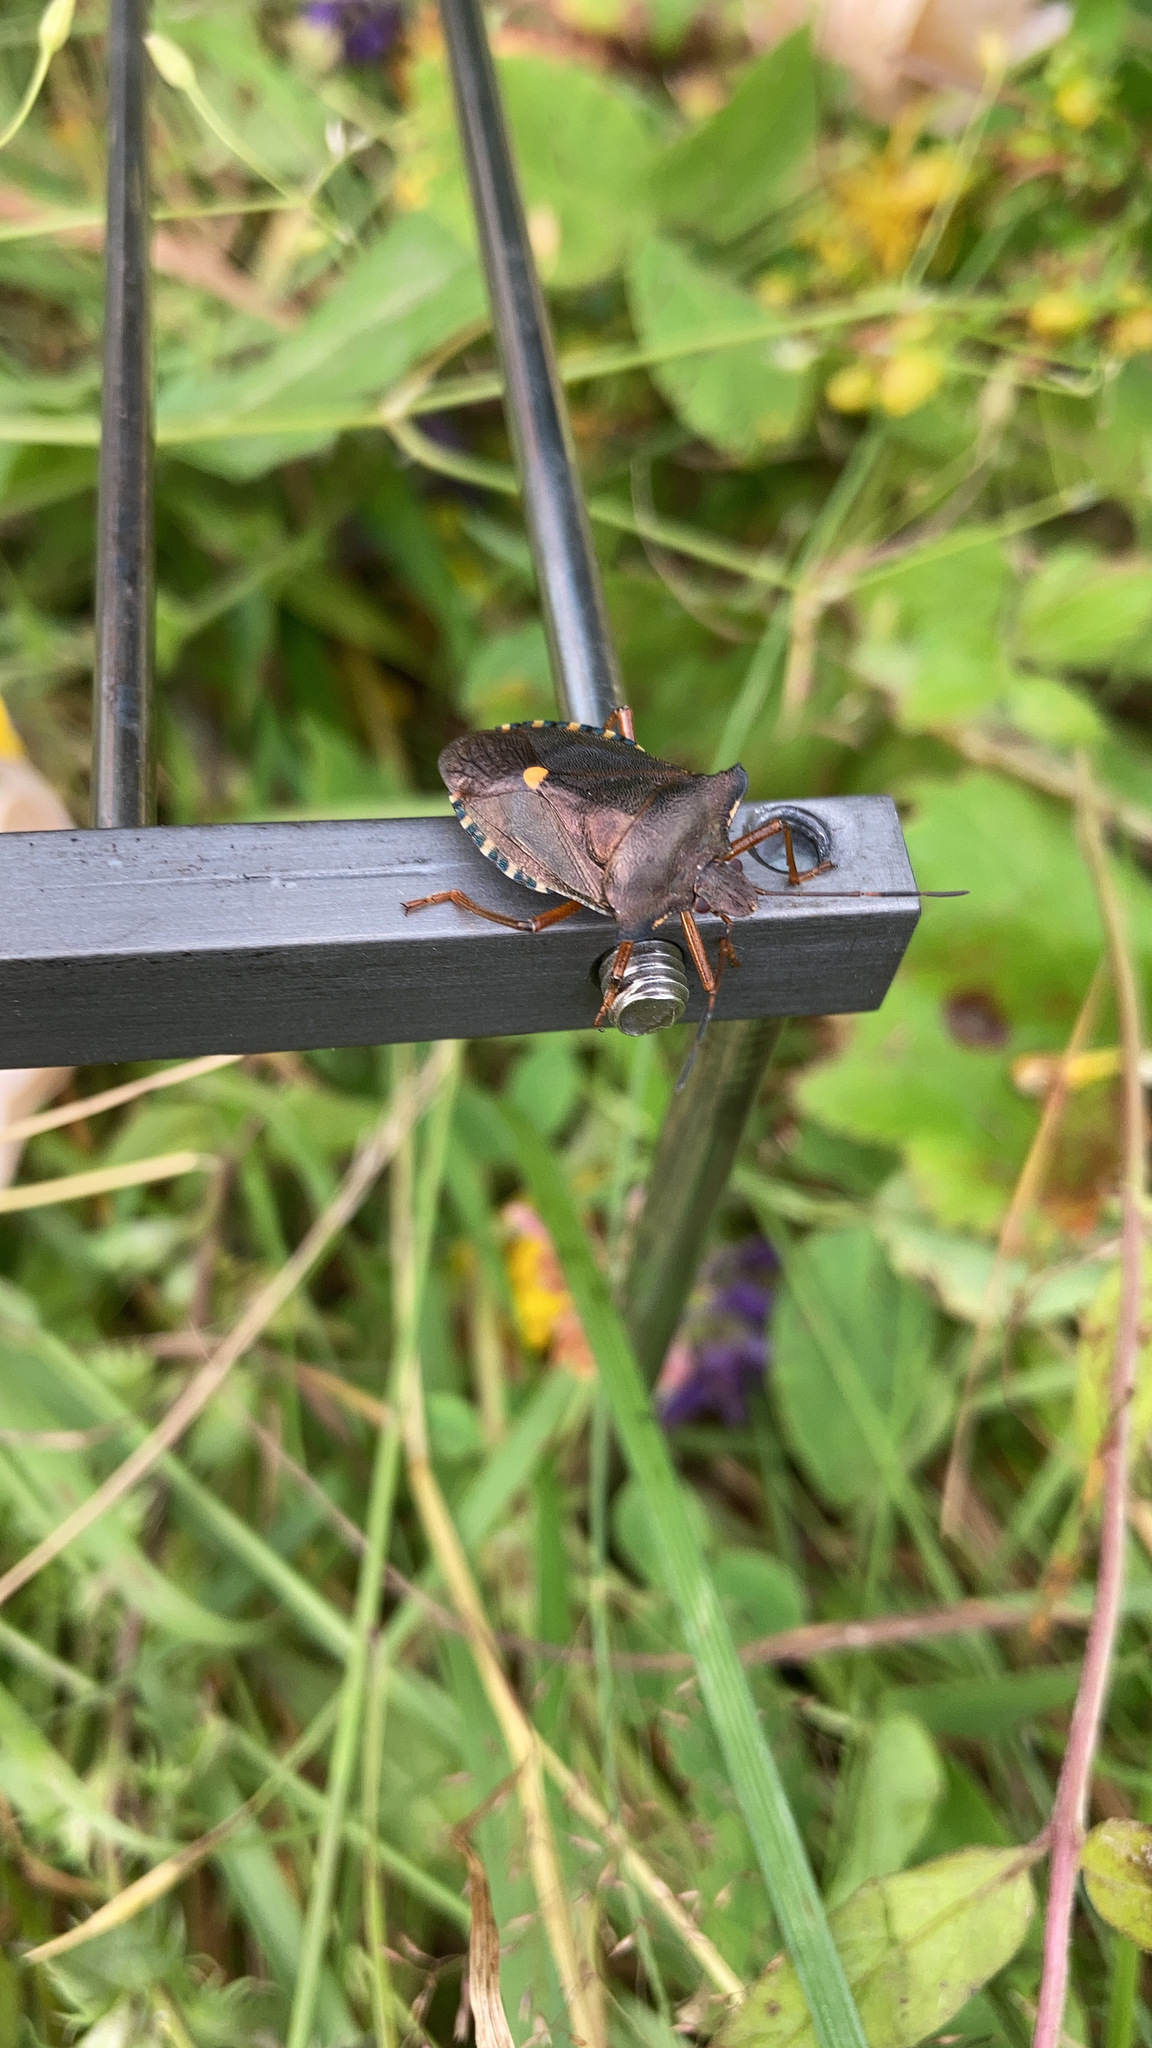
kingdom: Animalia
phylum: Arthropoda
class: Insecta
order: Hemiptera
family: Pentatomidae
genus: Pentatoma
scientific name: Pentatoma rufipes
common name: Forest bug
